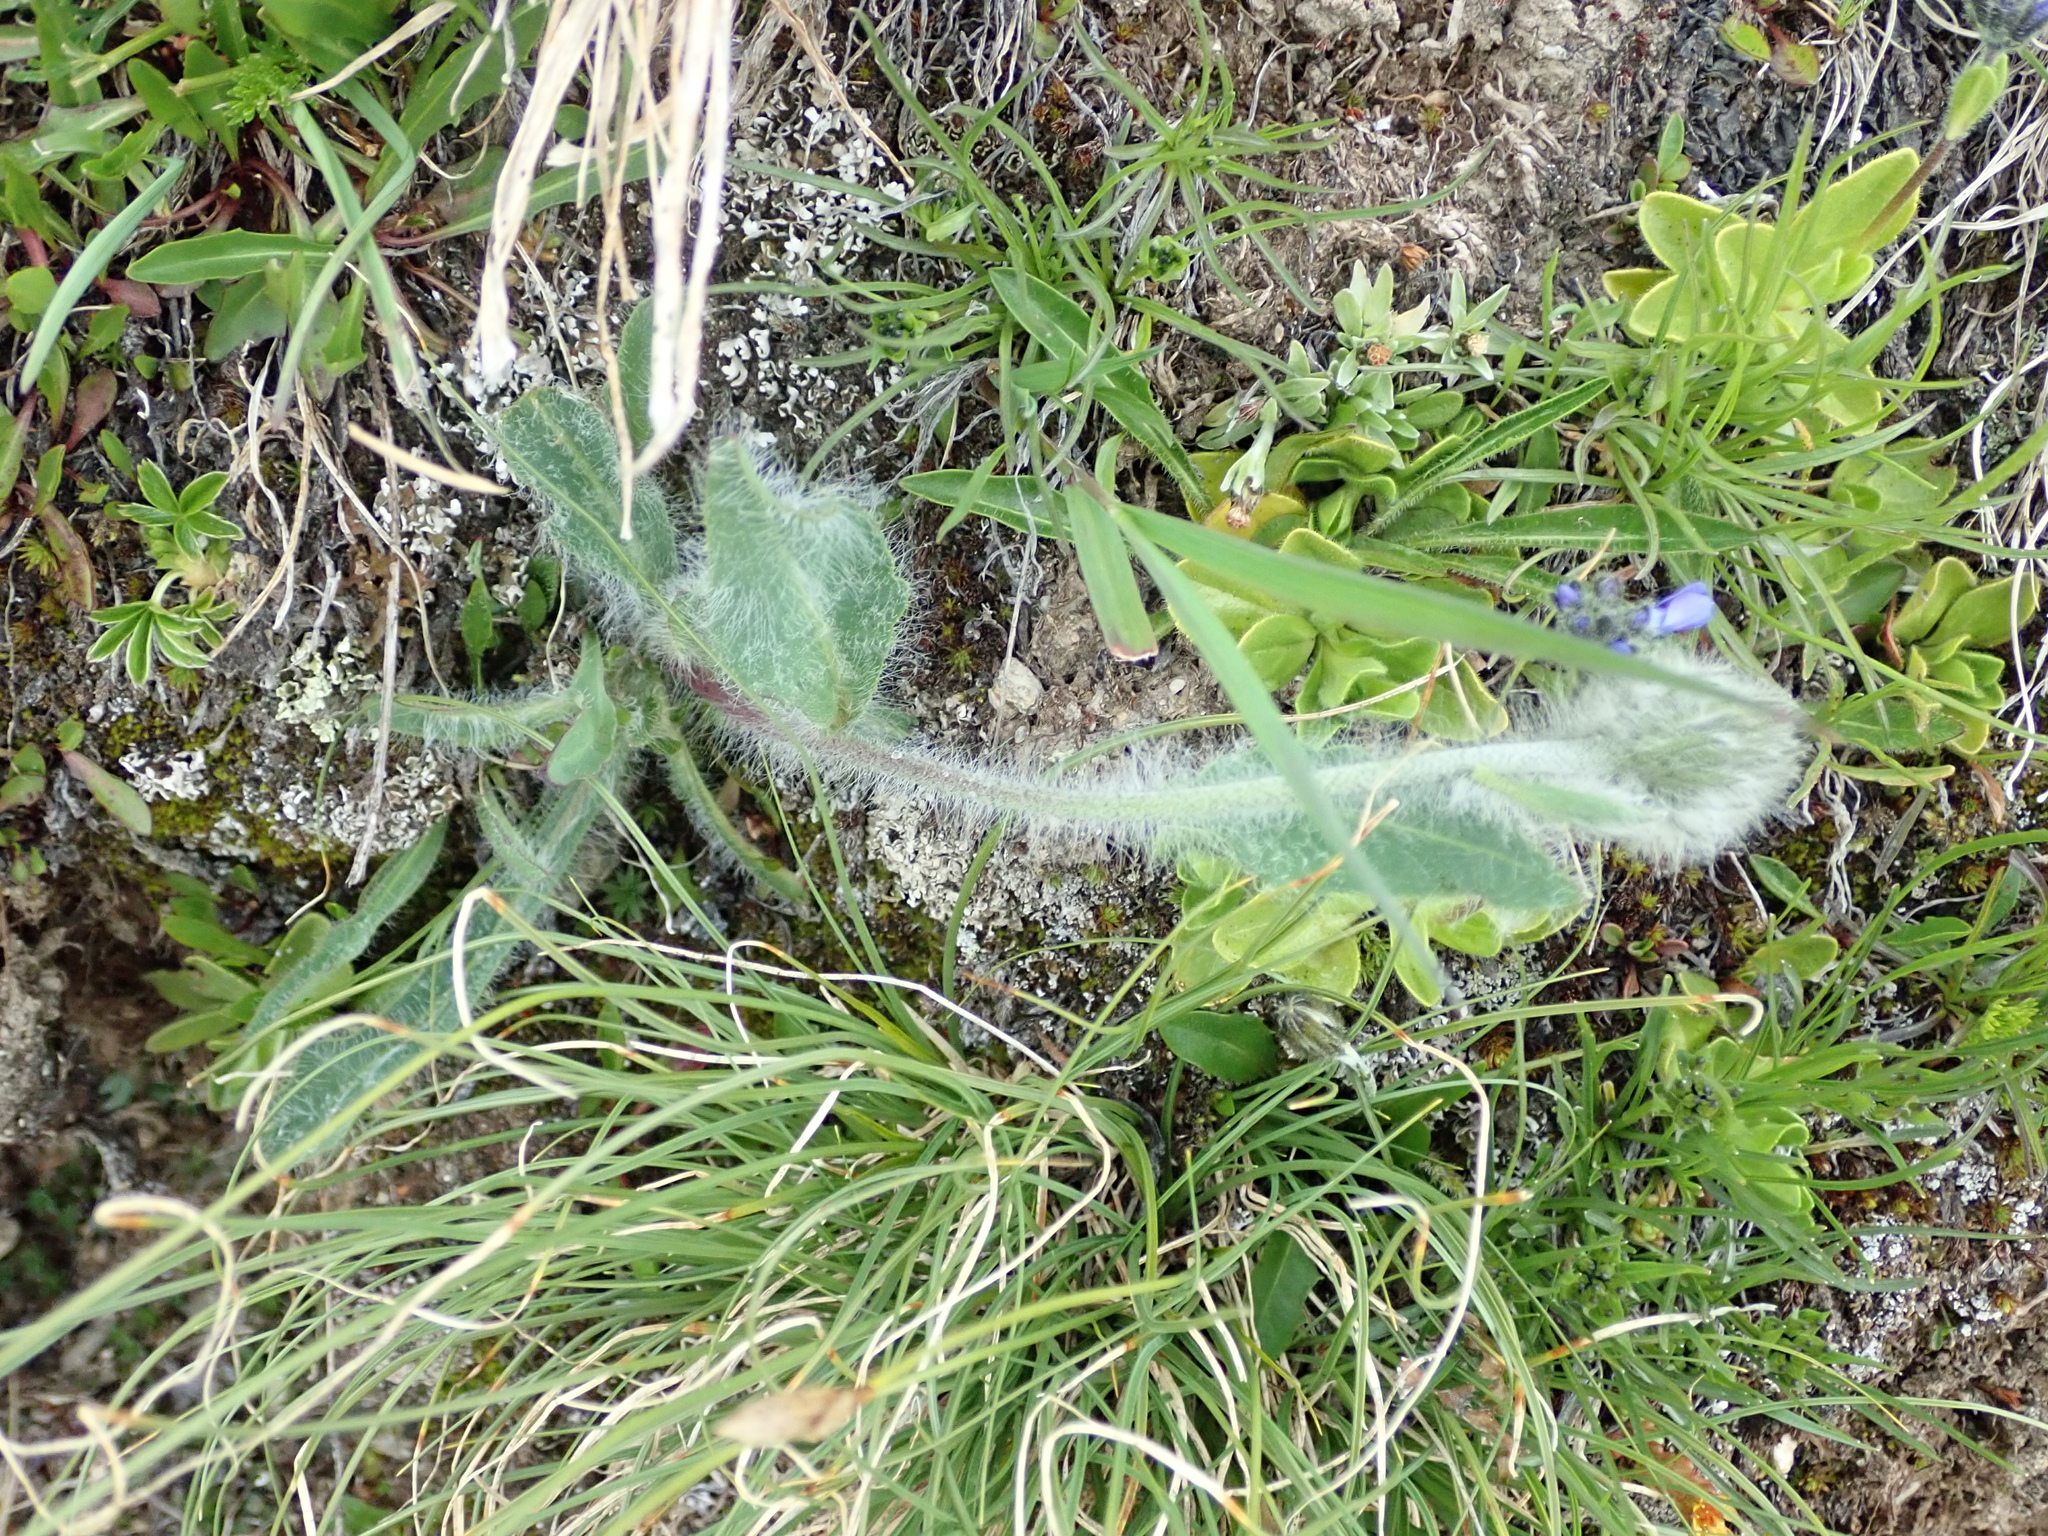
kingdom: Plantae
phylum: Tracheophyta
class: Magnoliopsida
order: Asterales
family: Asteraceae
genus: Hieracium
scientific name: Hieracium villosum
